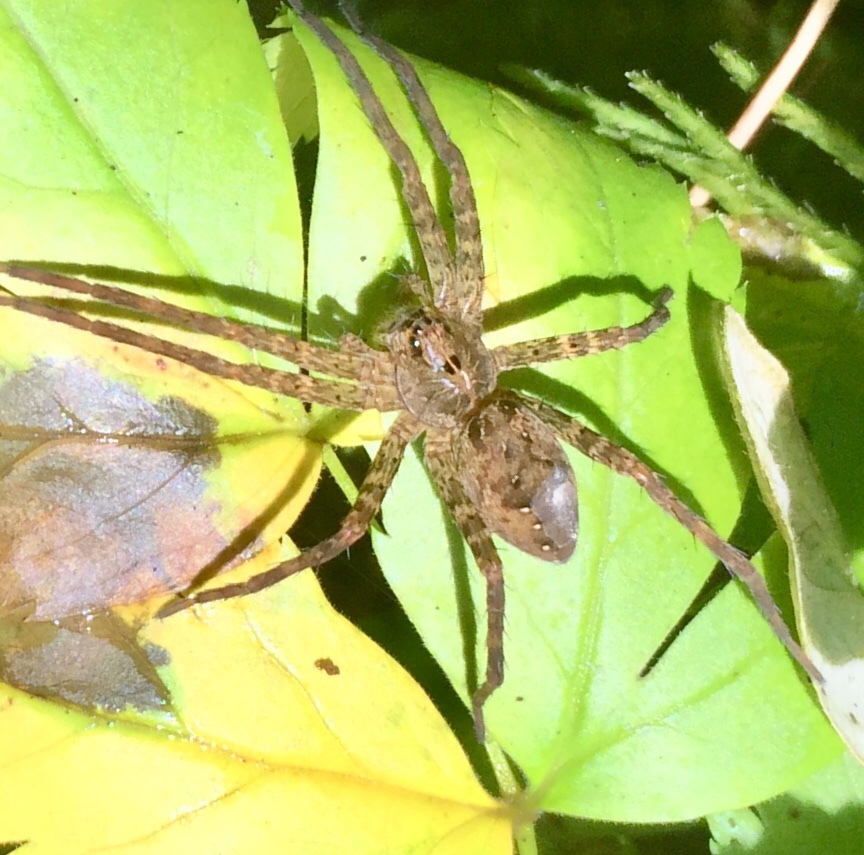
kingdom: Animalia
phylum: Arthropoda
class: Arachnida
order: Araneae
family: Pisauridae
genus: Dolomedes
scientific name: Dolomedes vittatus
